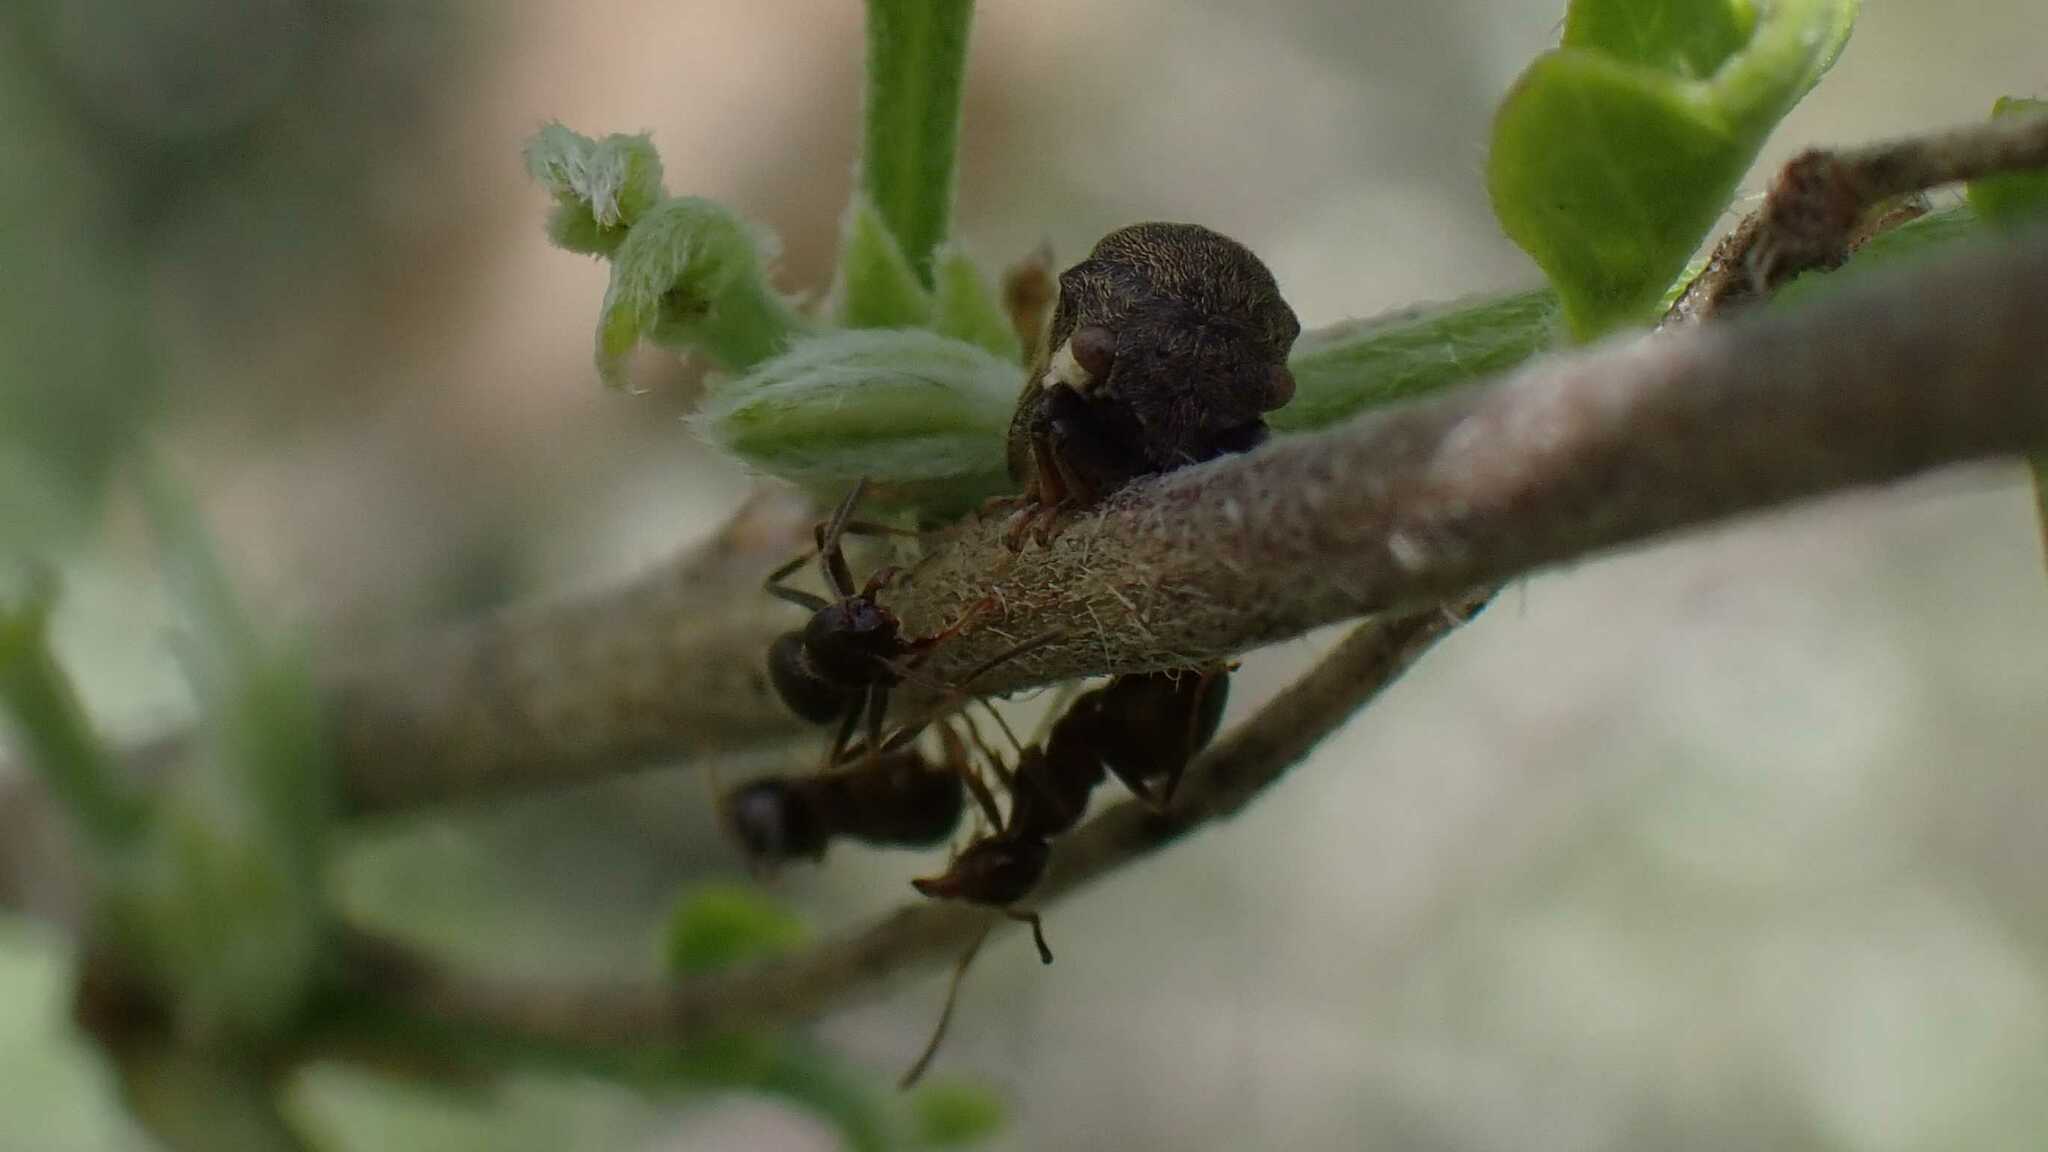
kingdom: Animalia
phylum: Arthropoda
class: Insecta
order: Hemiptera
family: Membracidae
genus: Gargara
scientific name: Gargara genistae
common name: Treehopper
